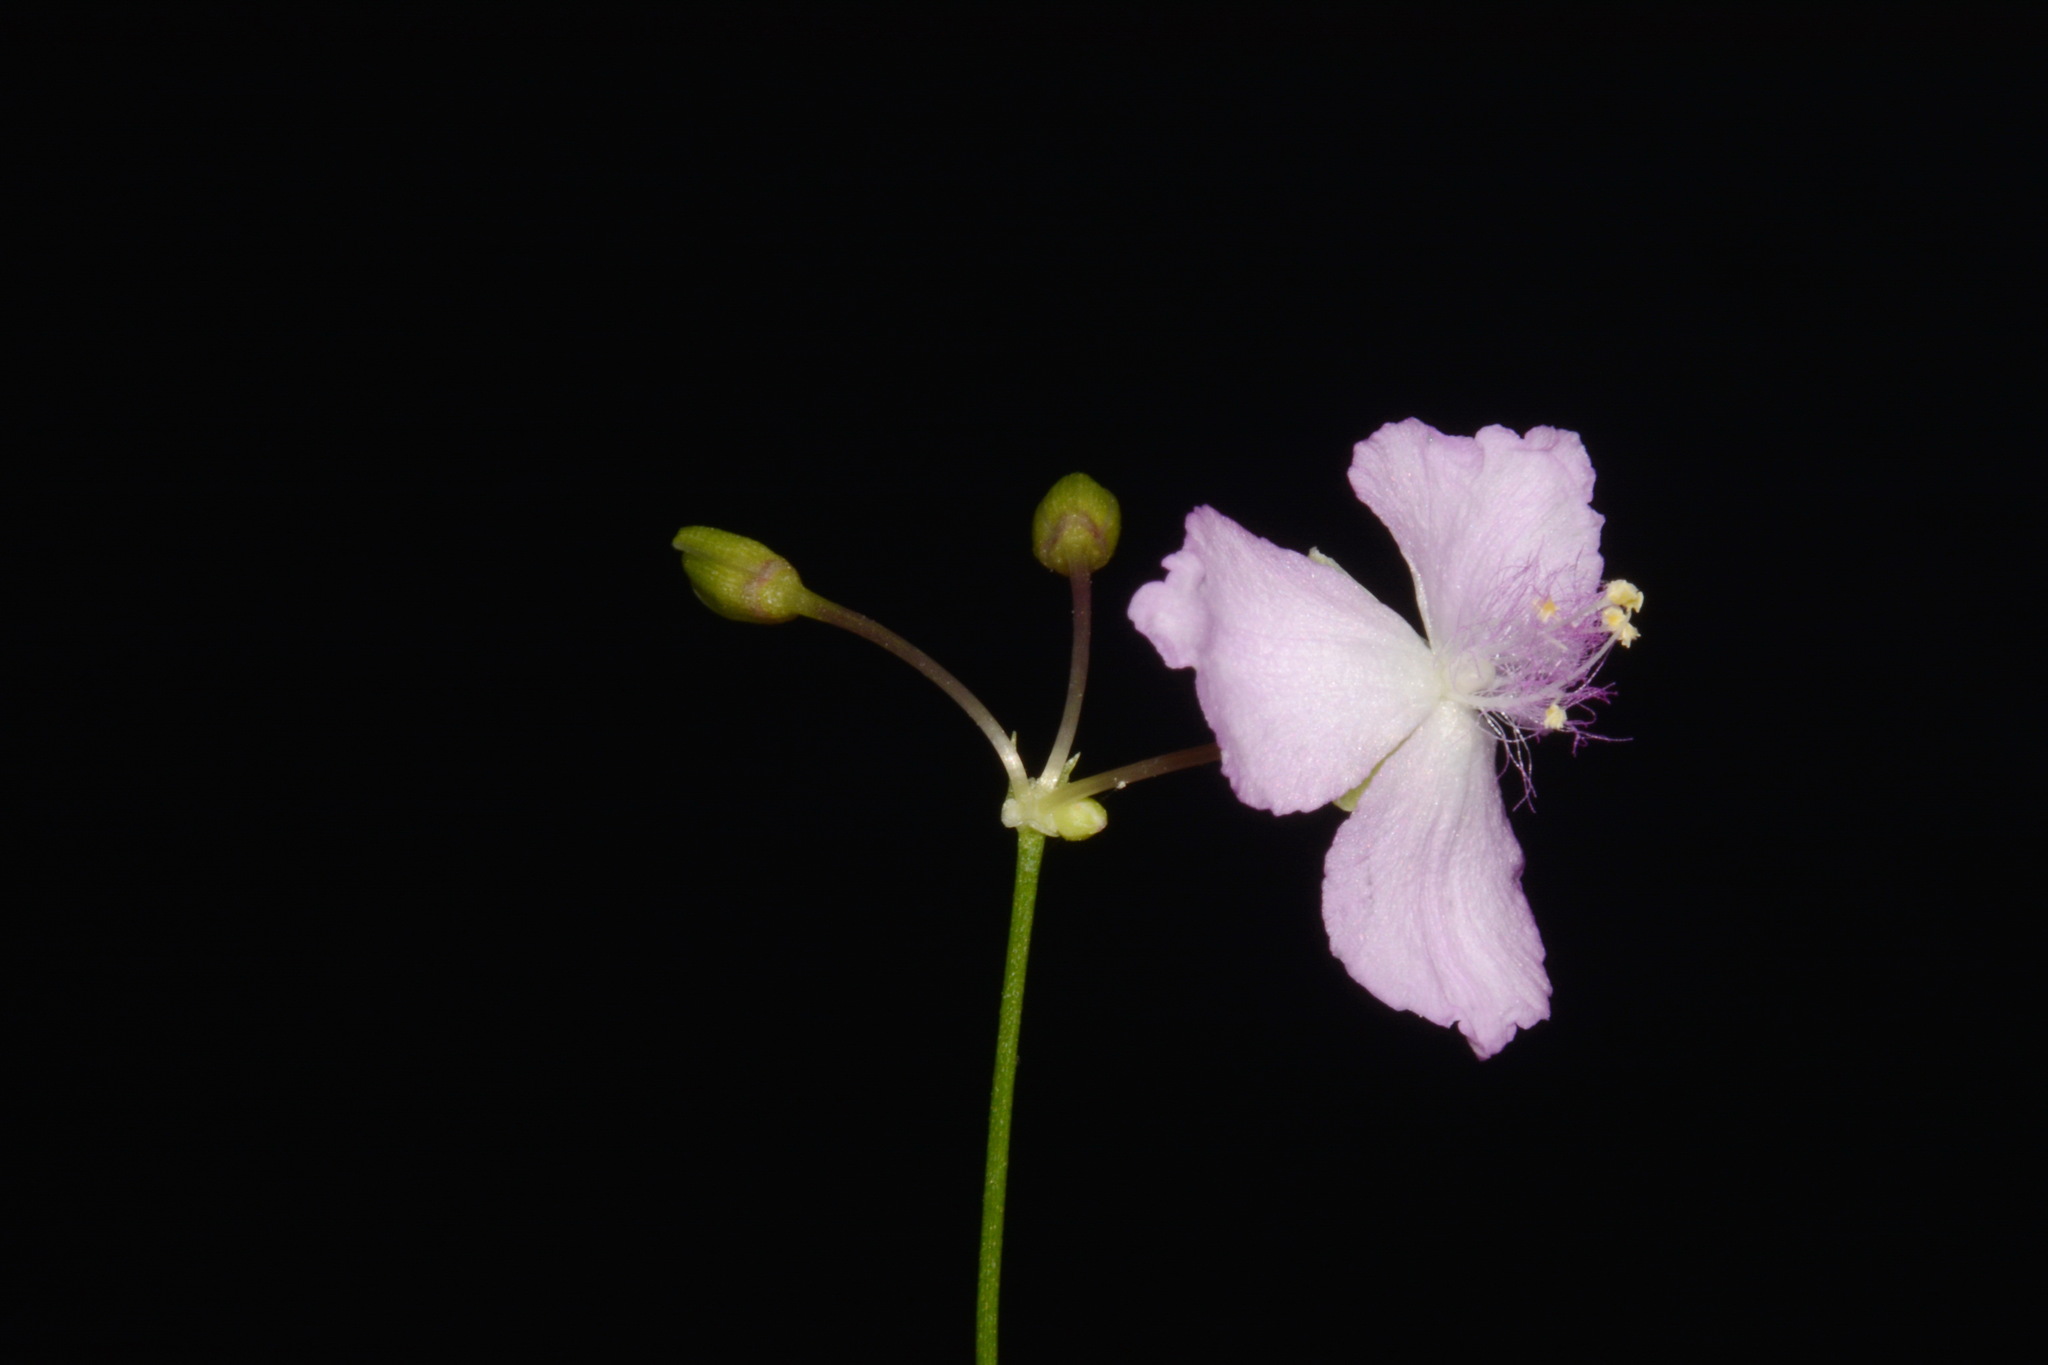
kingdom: Plantae
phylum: Tracheophyta
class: Liliopsida
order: Commelinales
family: Commelinaceae
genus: Callisia
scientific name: Callisia graminea
